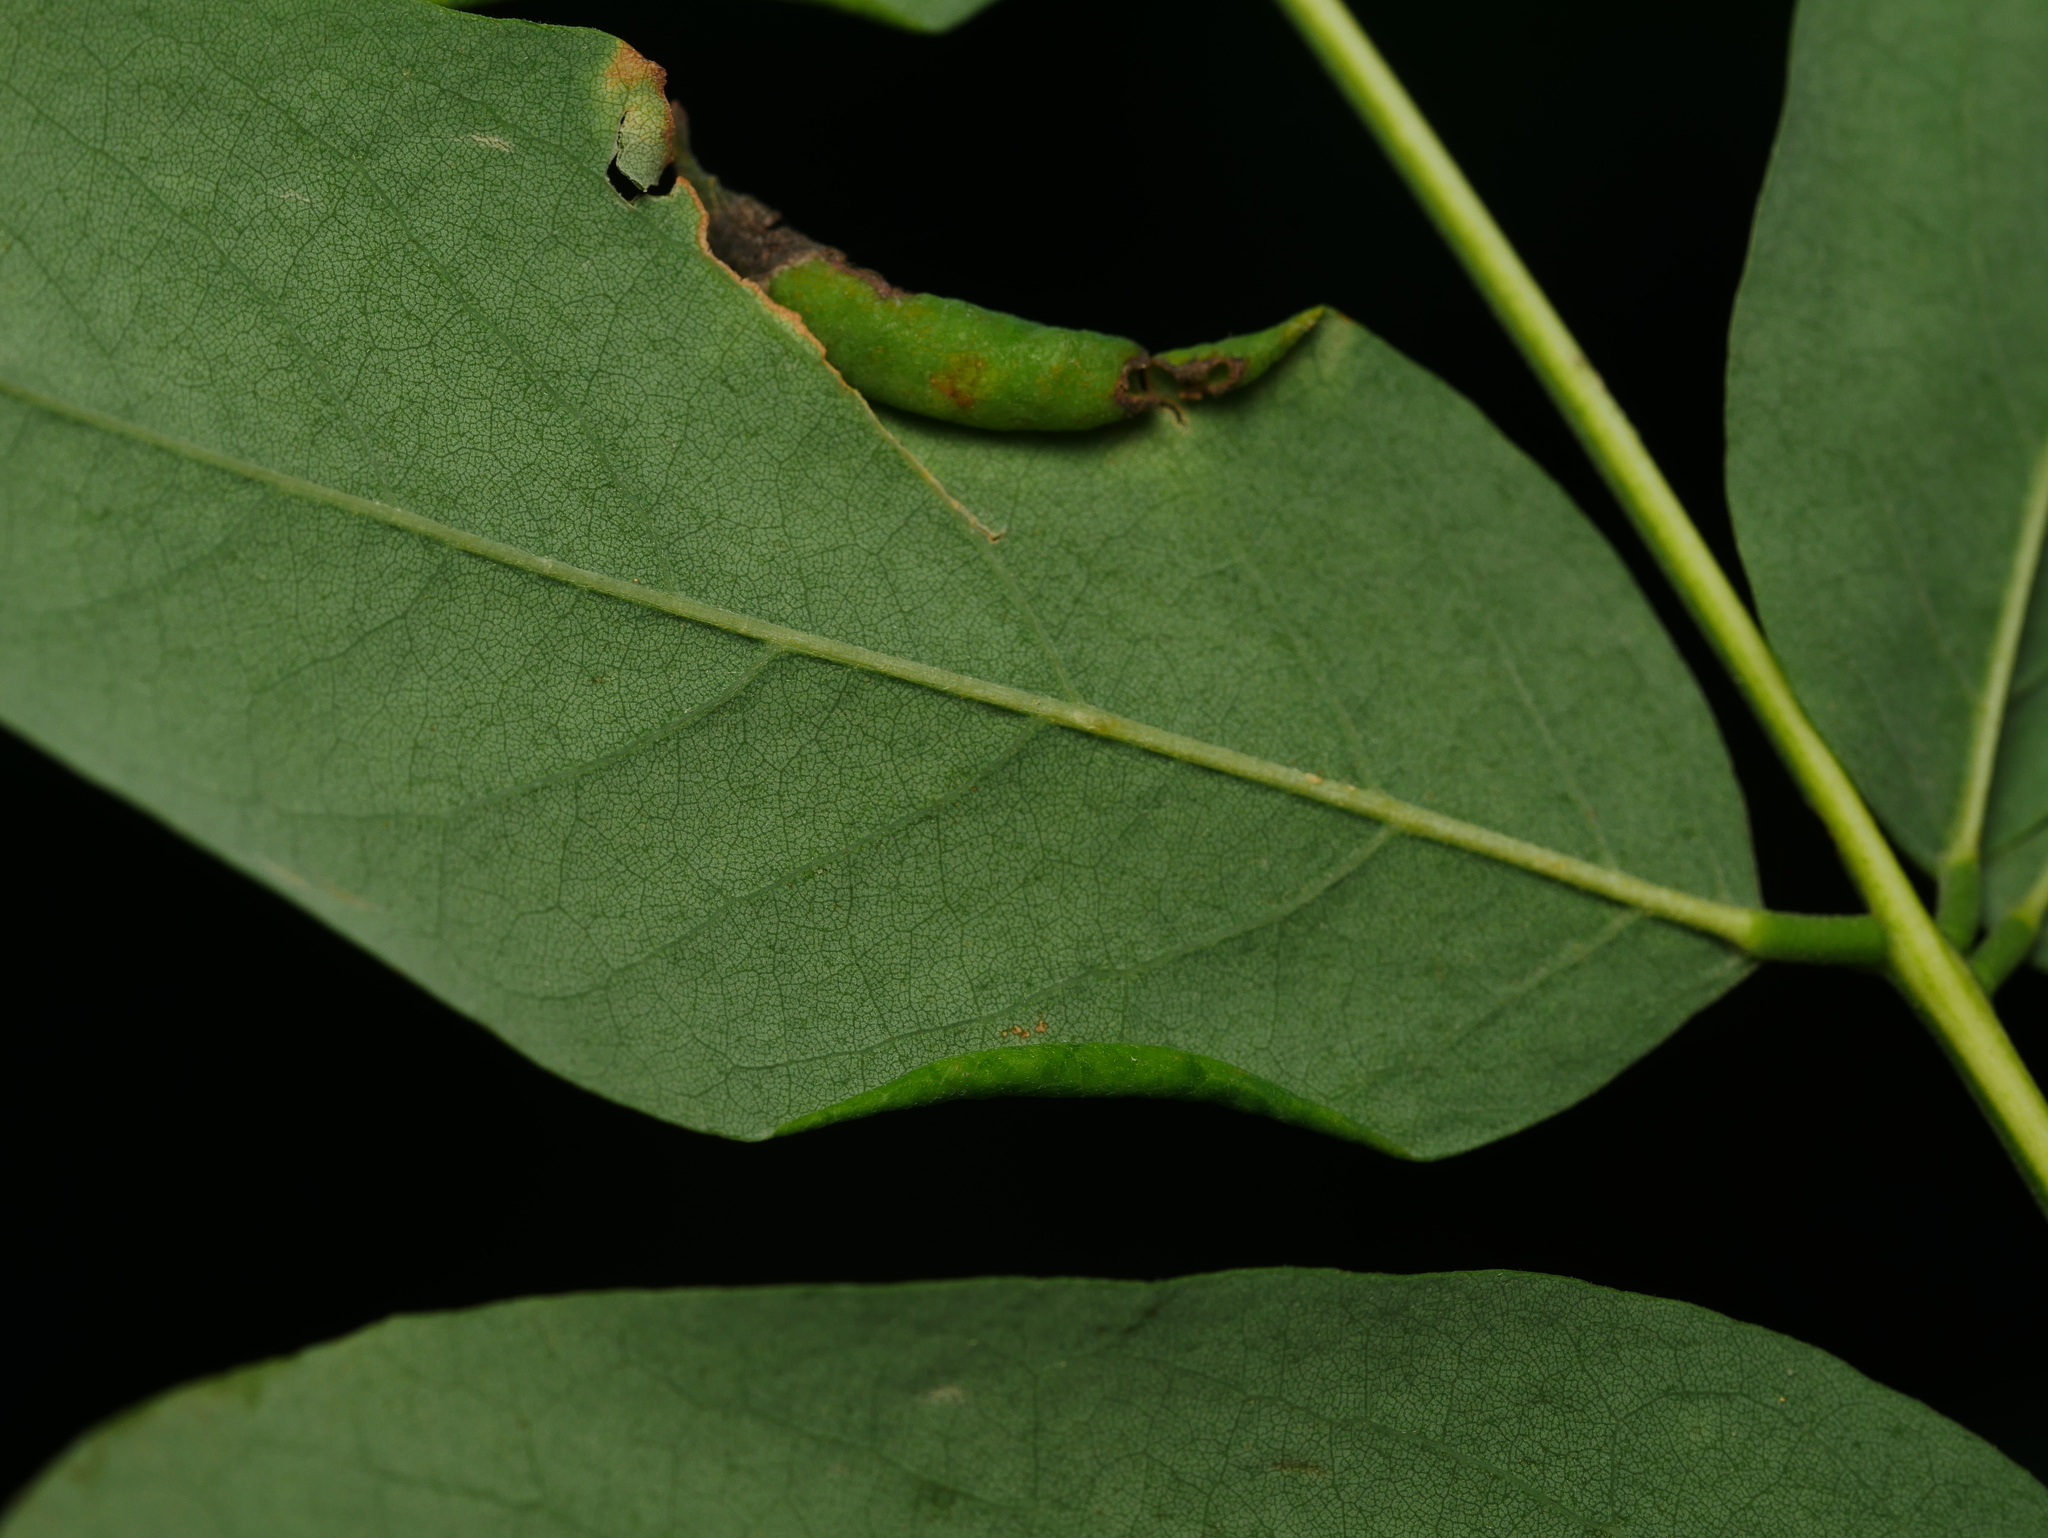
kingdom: Animalia
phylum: Arthropoda
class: Insecta
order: Diptera
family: Cecidomyiidae
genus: Obolodiplosis
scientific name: Obolodiplosis robiniae
